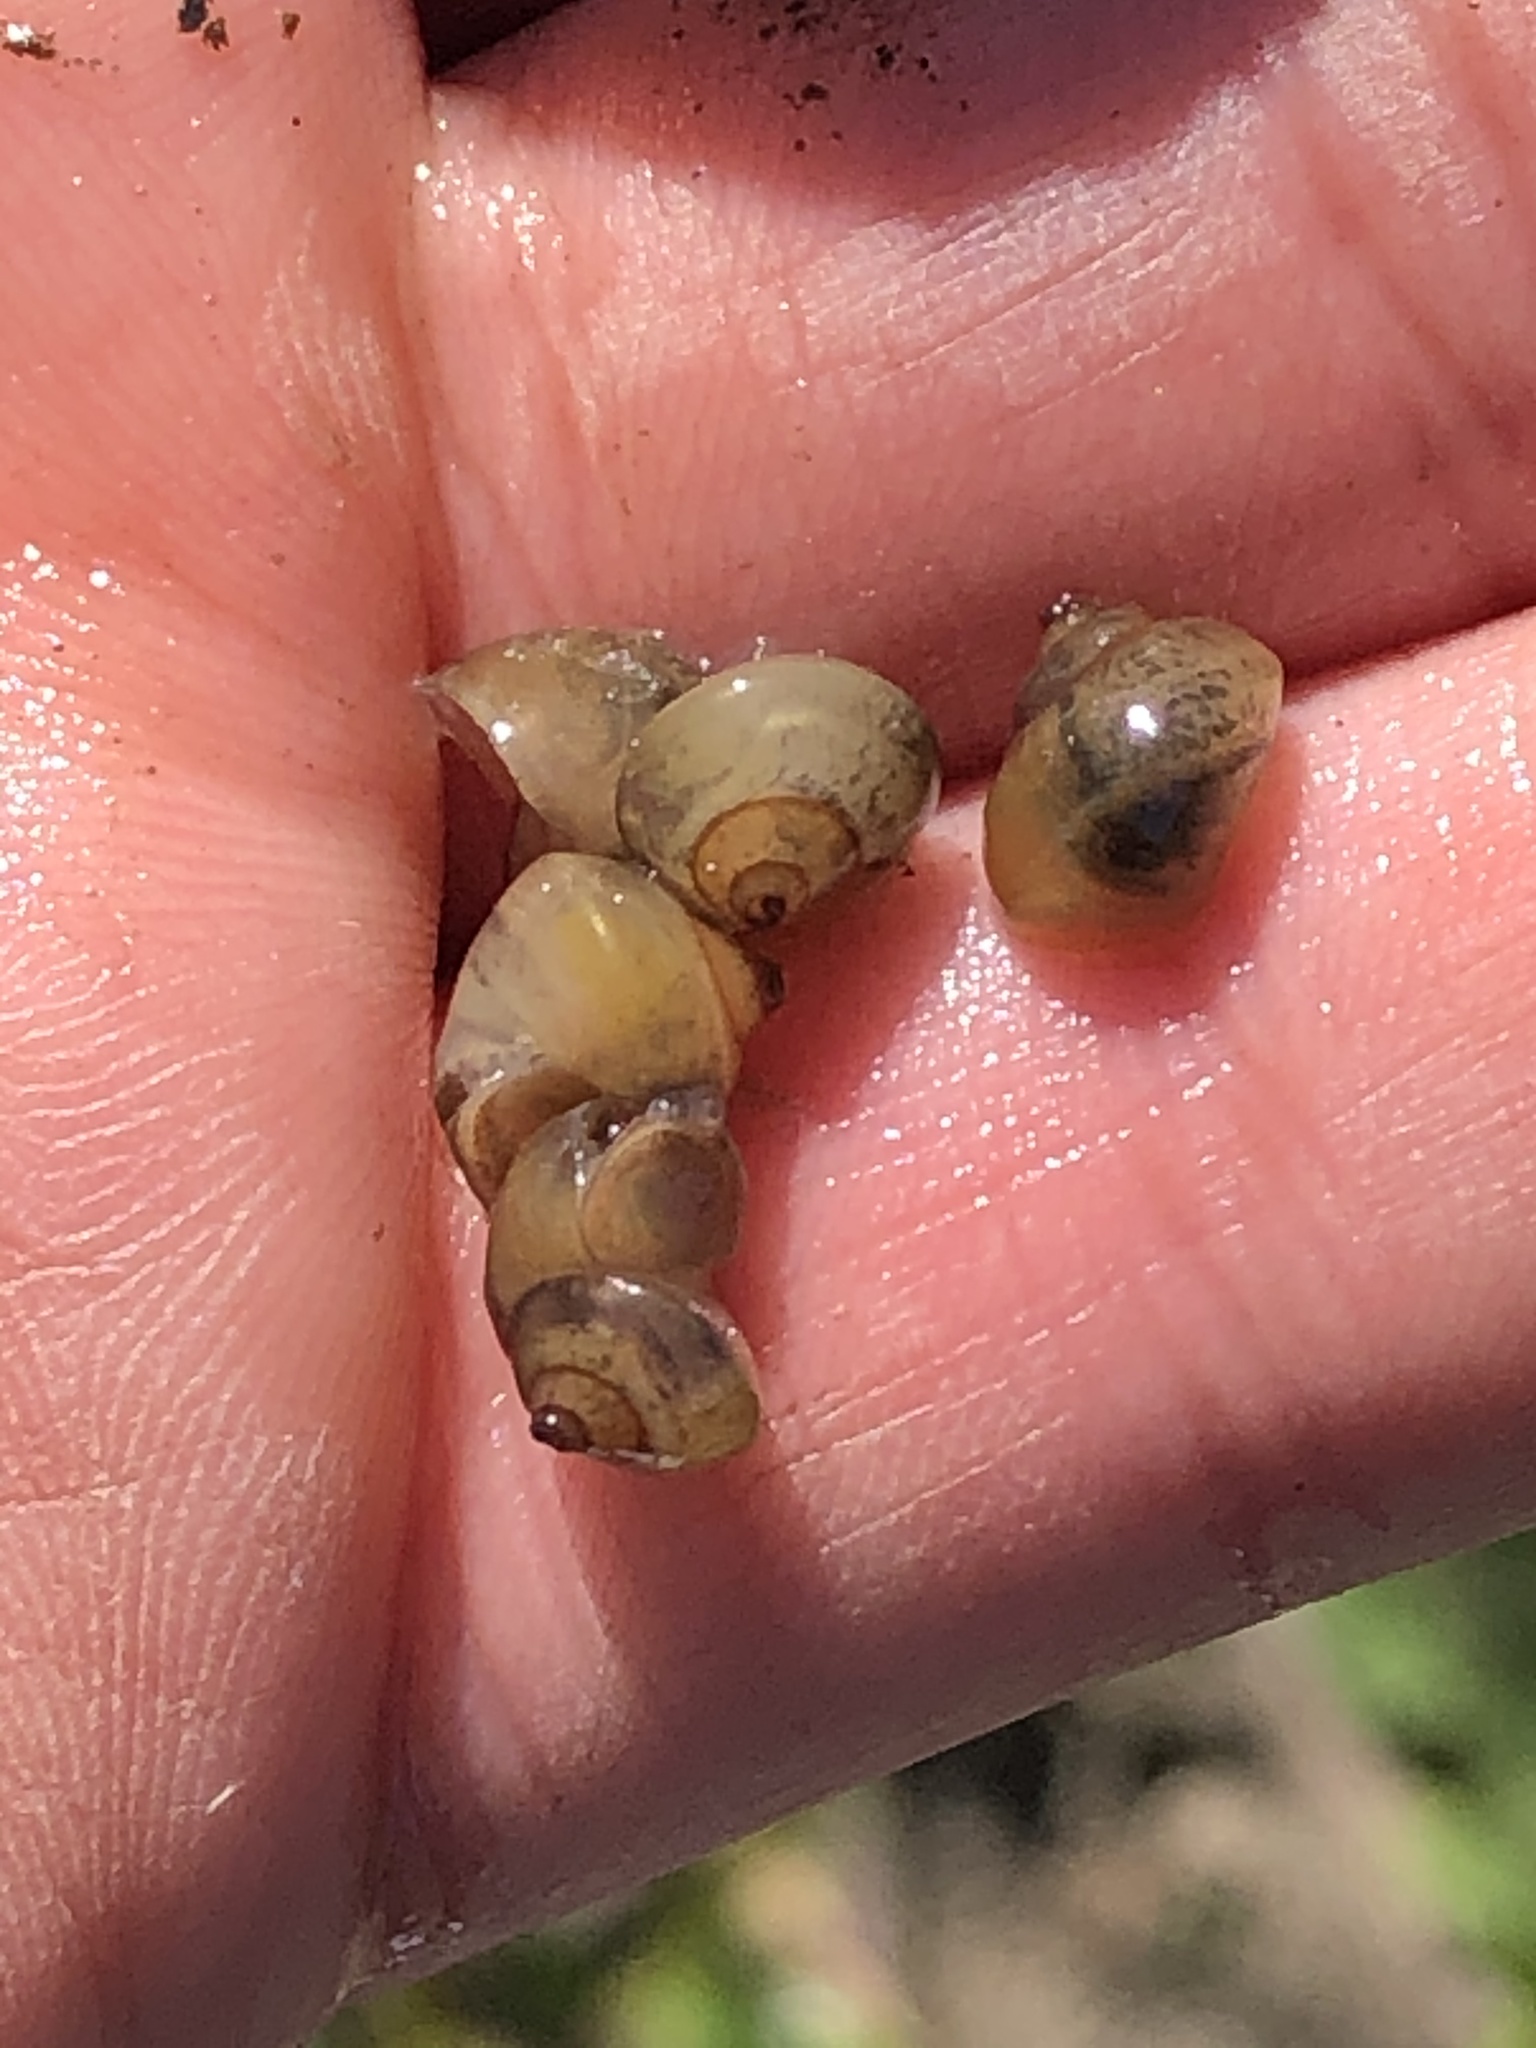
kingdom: Animalia
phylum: Mollusca
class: Gastropoda
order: Architaenioglossa
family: Viviparidae
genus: Cipangopaludina
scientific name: Cipangopaludina chinensis
